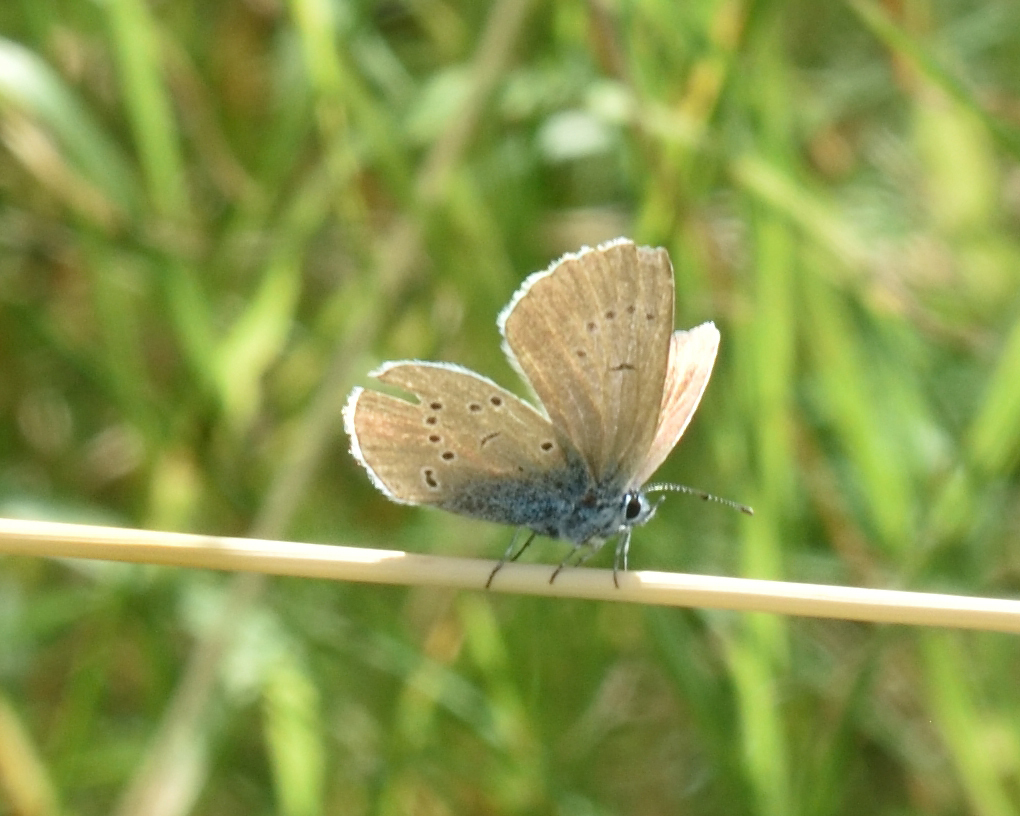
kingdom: Animalia
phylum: Arthropoda
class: Insecta
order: Lepidoptera
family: Lycaenidae
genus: Cyaniris
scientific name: Cyaniris semiargus
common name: Mazarine blue
